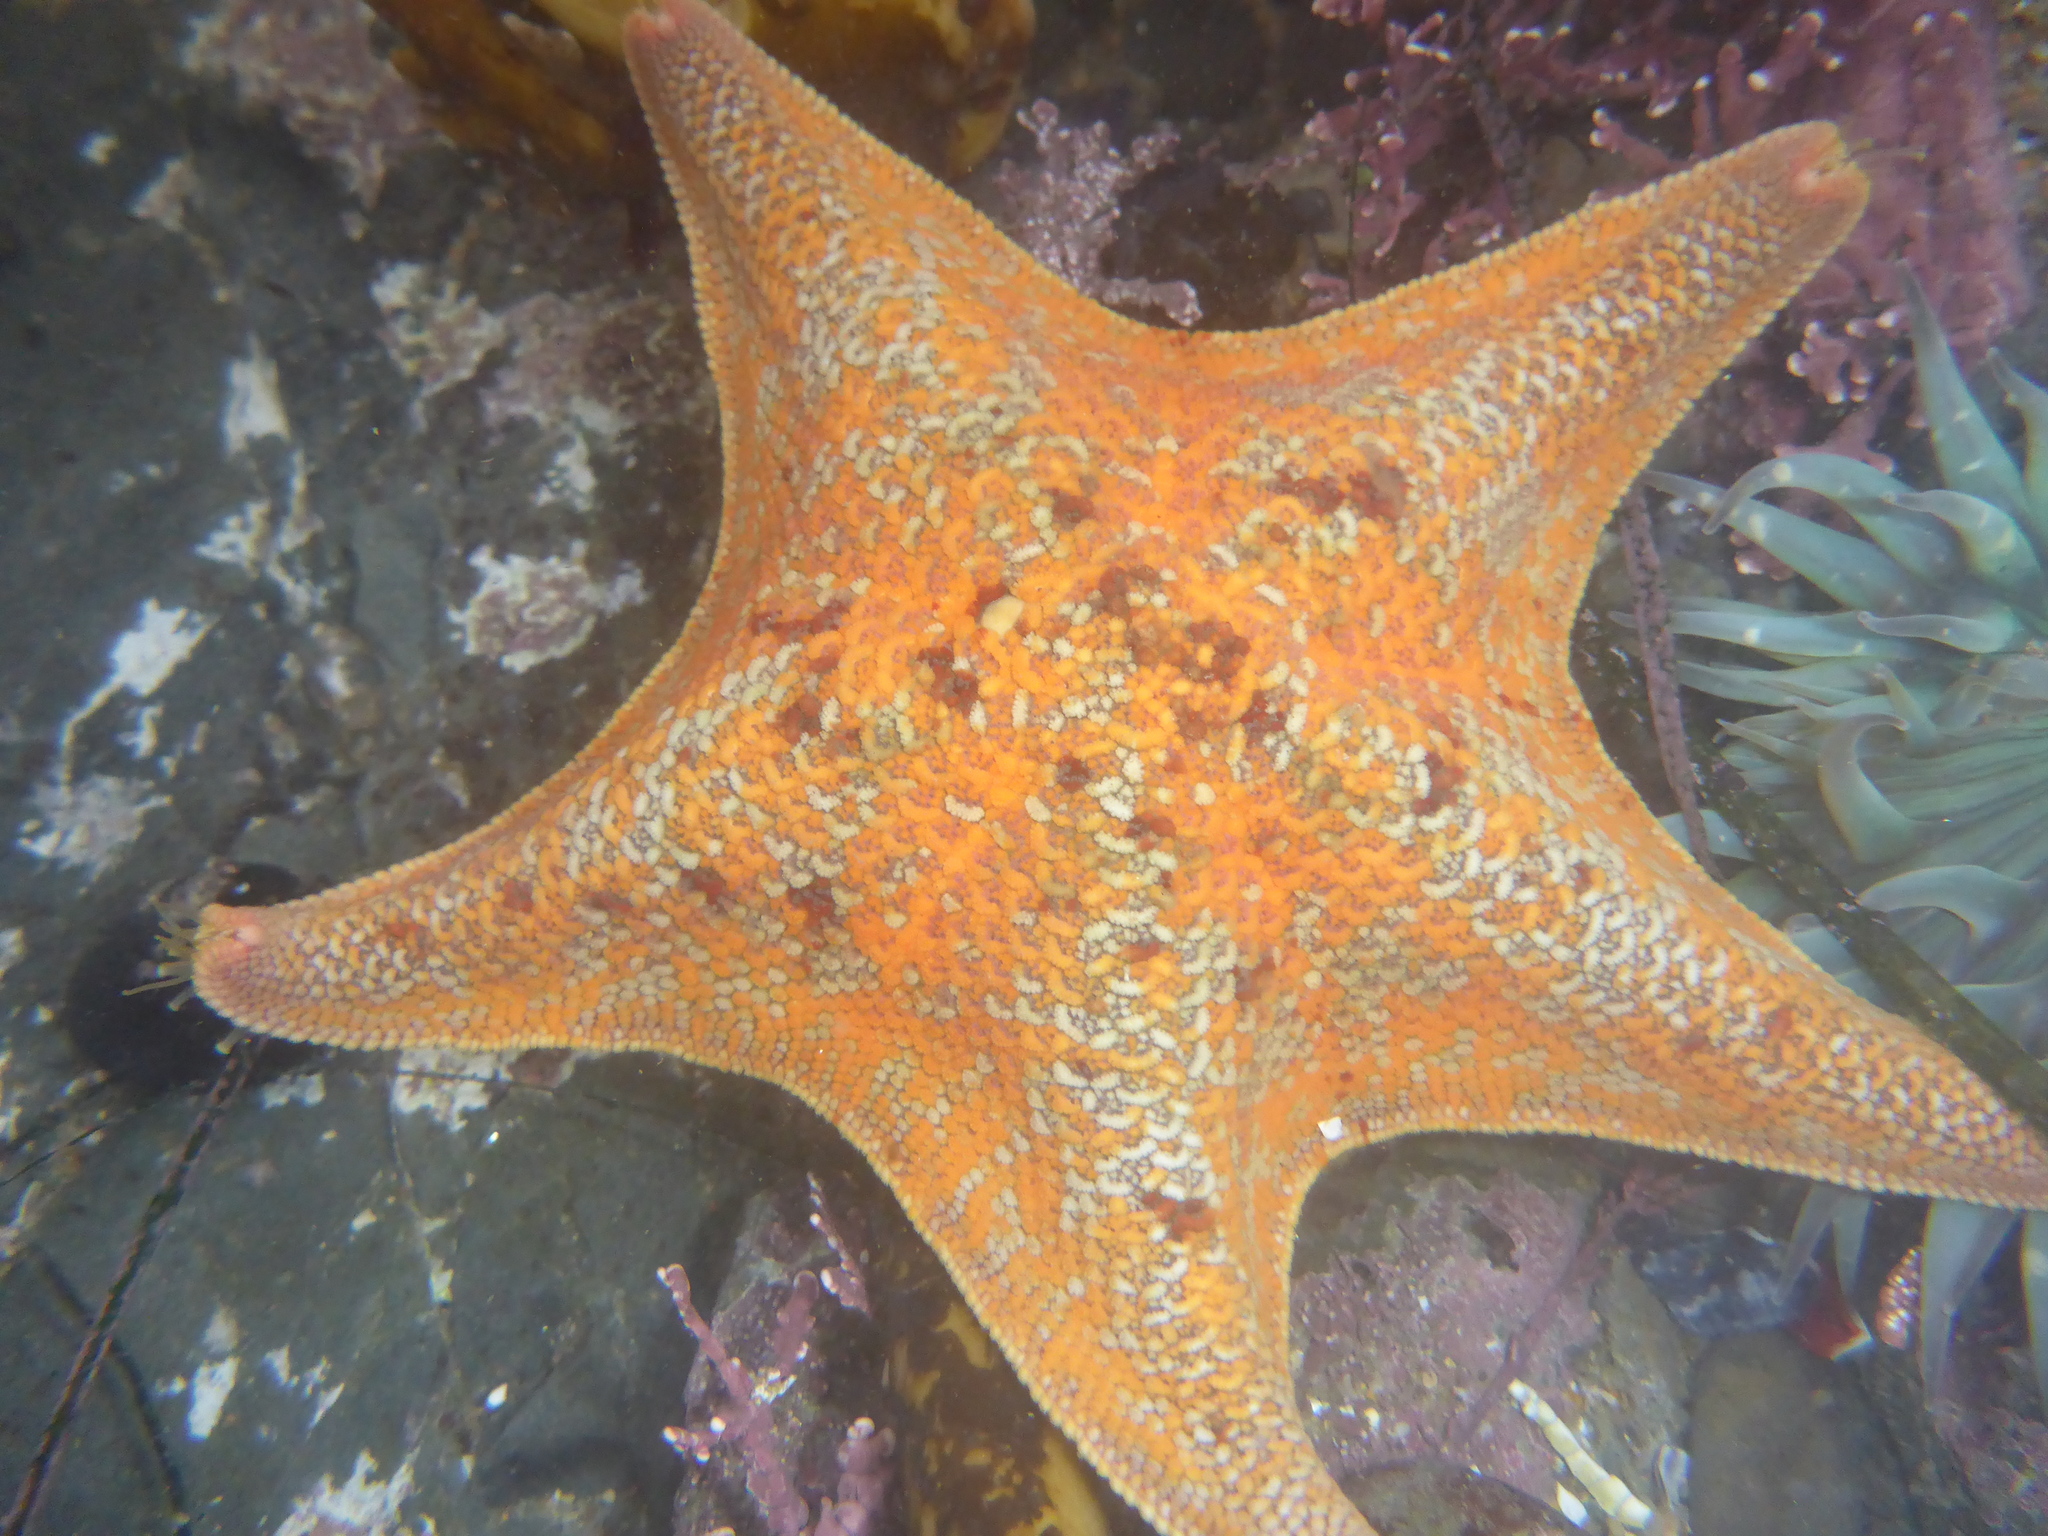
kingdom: Animalia
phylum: Echinodermata
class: Asteroidea
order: Valvatida
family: Asterinidae
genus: Patiria
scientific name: Patiria miniata
